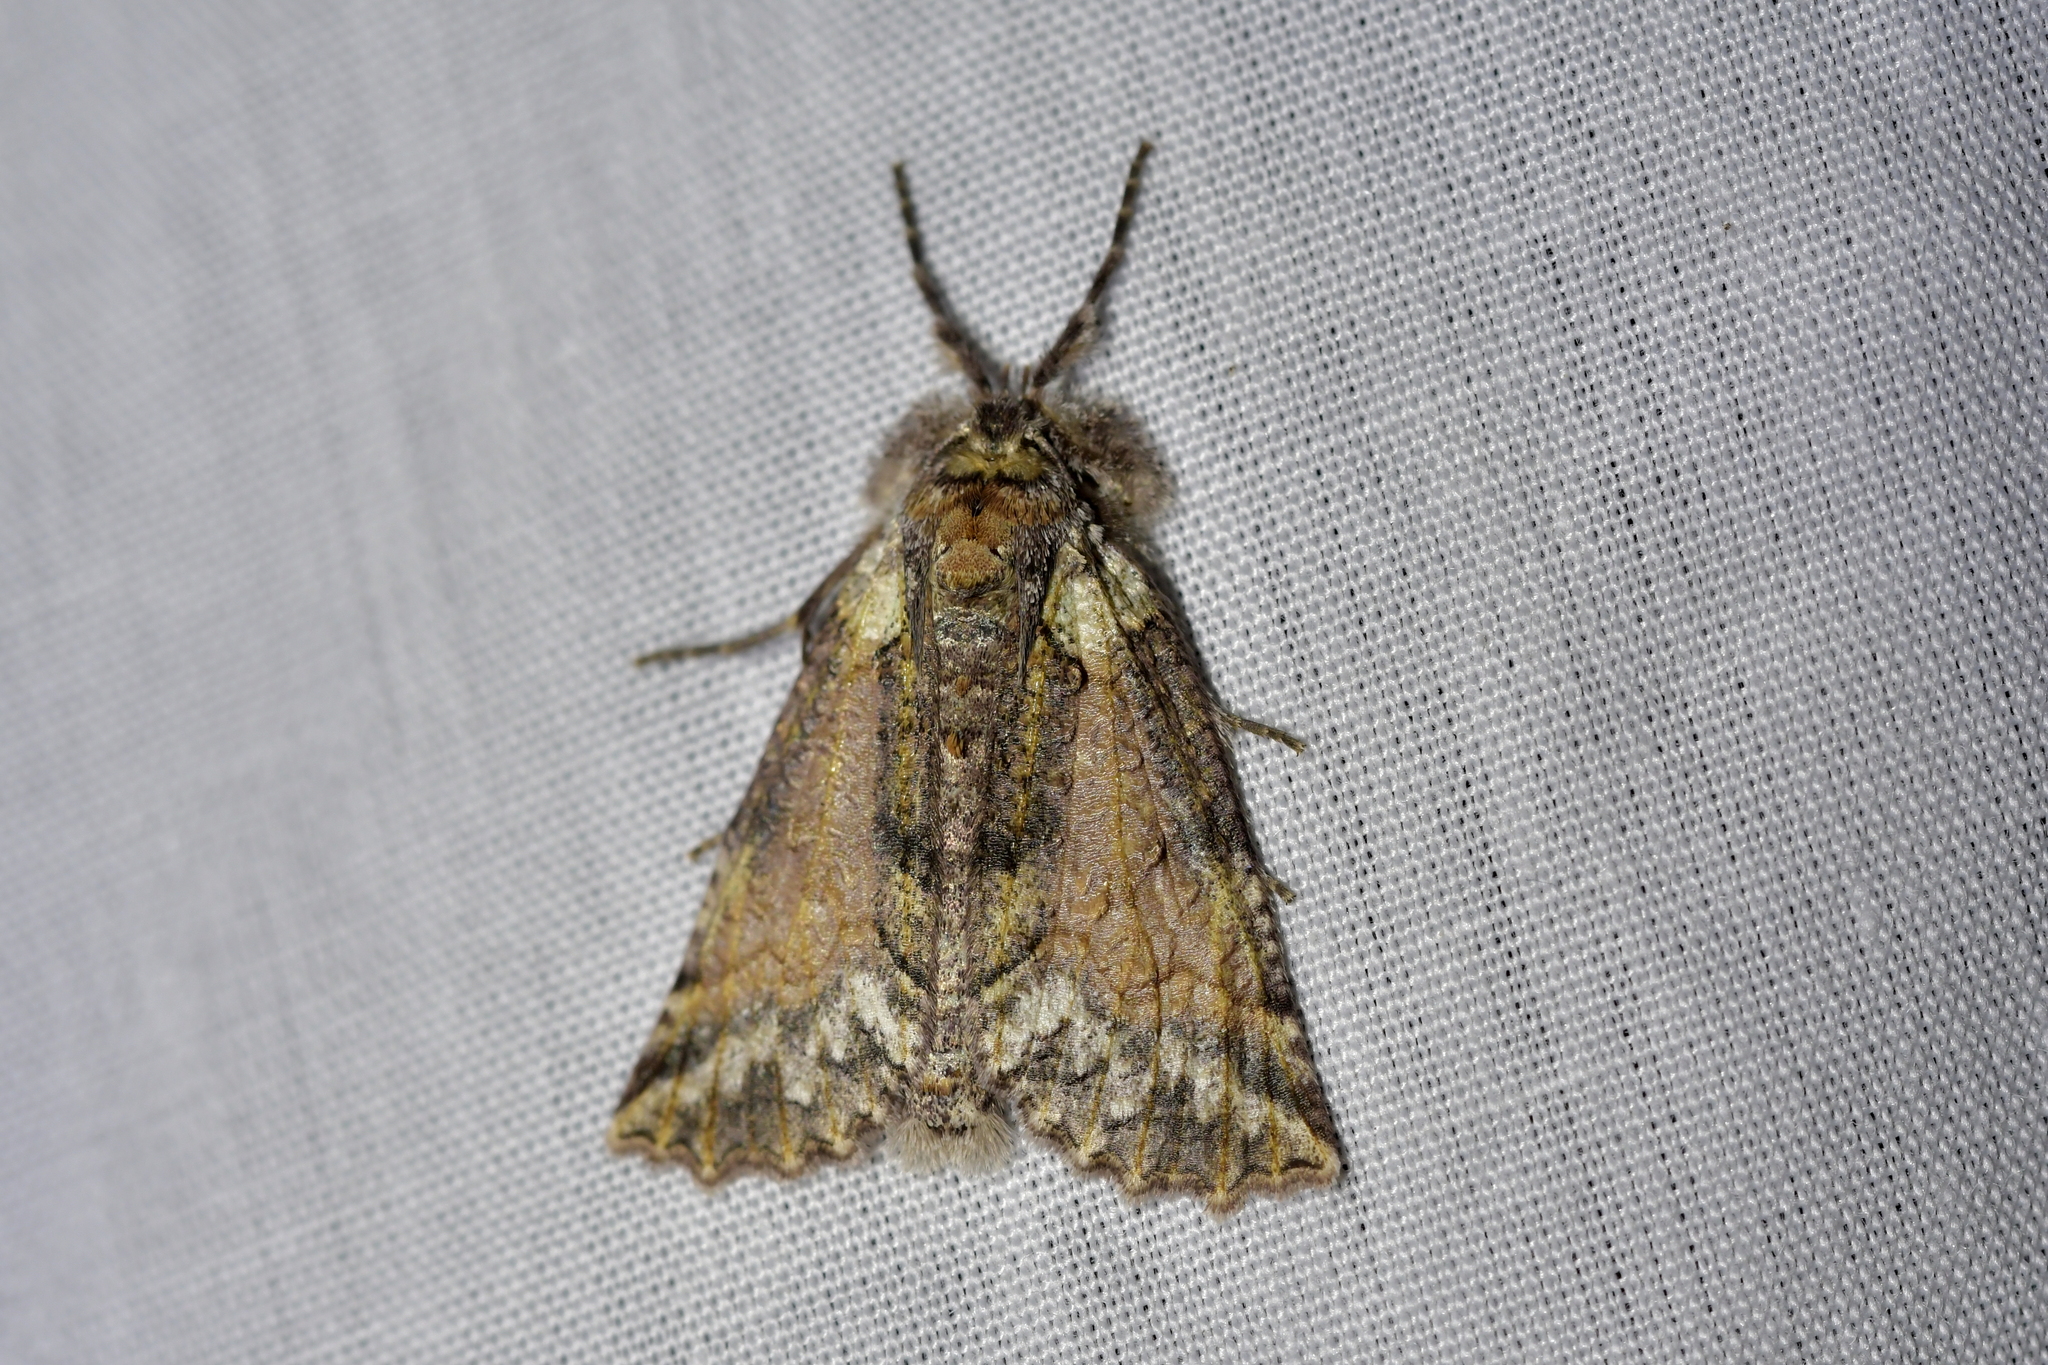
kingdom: Animalia
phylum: Arthropoda
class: Insecta
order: Lepidoptera
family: Geometridae
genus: Declana
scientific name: Declana floccosa
